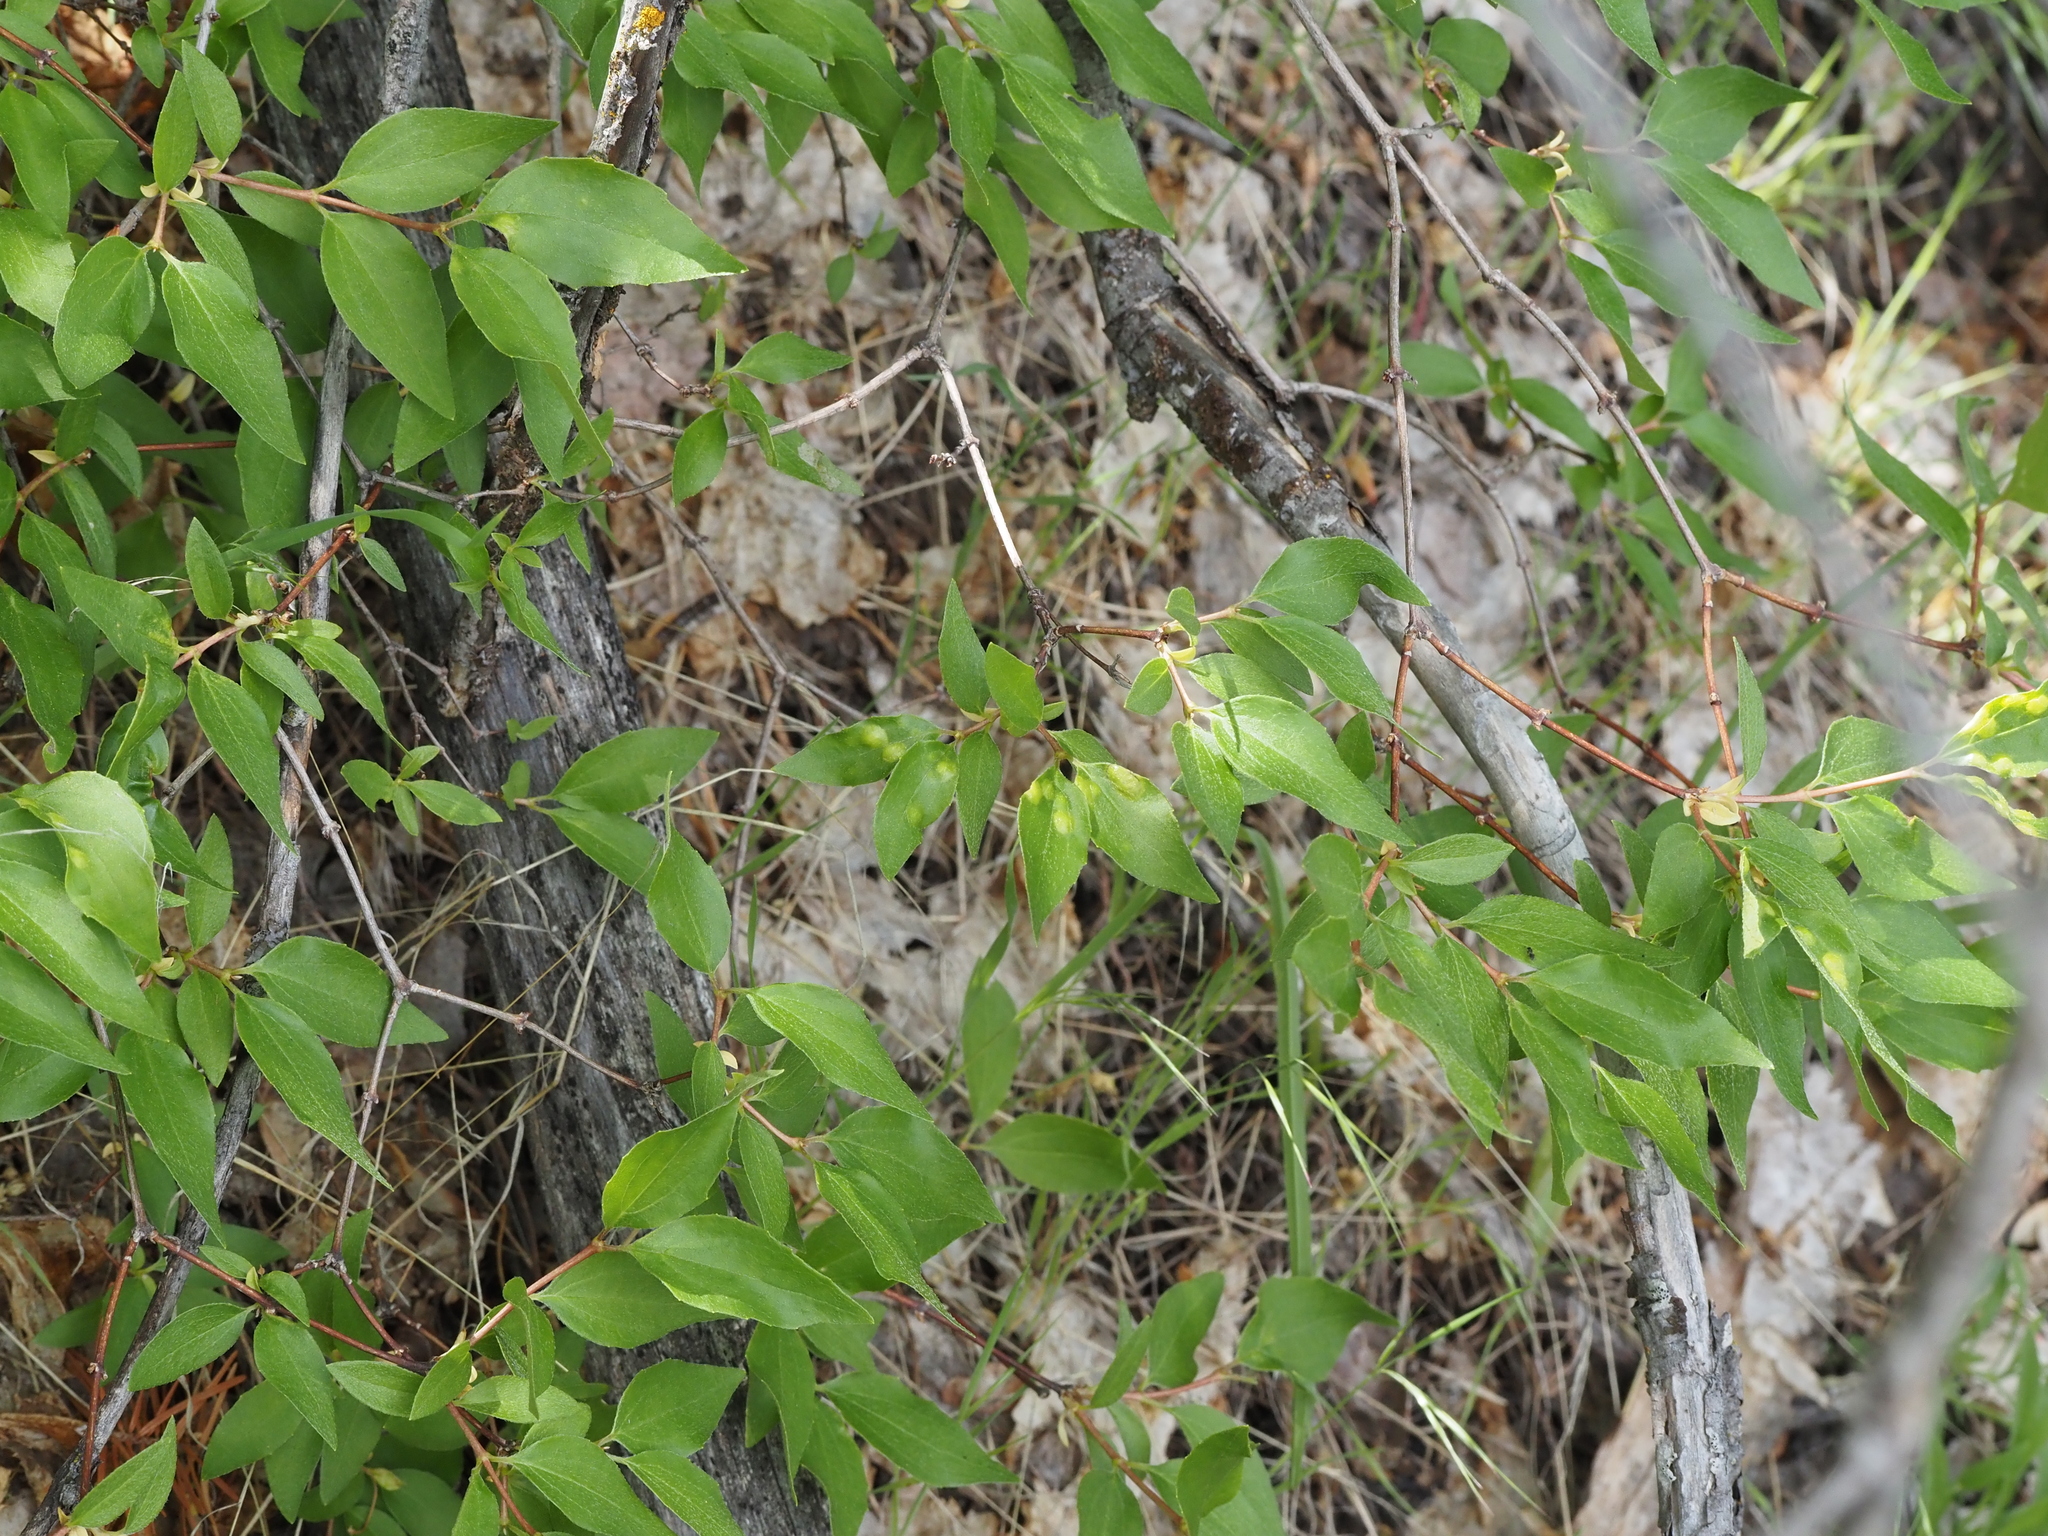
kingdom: Plantae
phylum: Tracheophyta
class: Magnoliopsida
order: Cornales
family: Hydrangeaceae
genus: Philadelphus
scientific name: Philadelphus lewisii
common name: Lewis's mock orange
